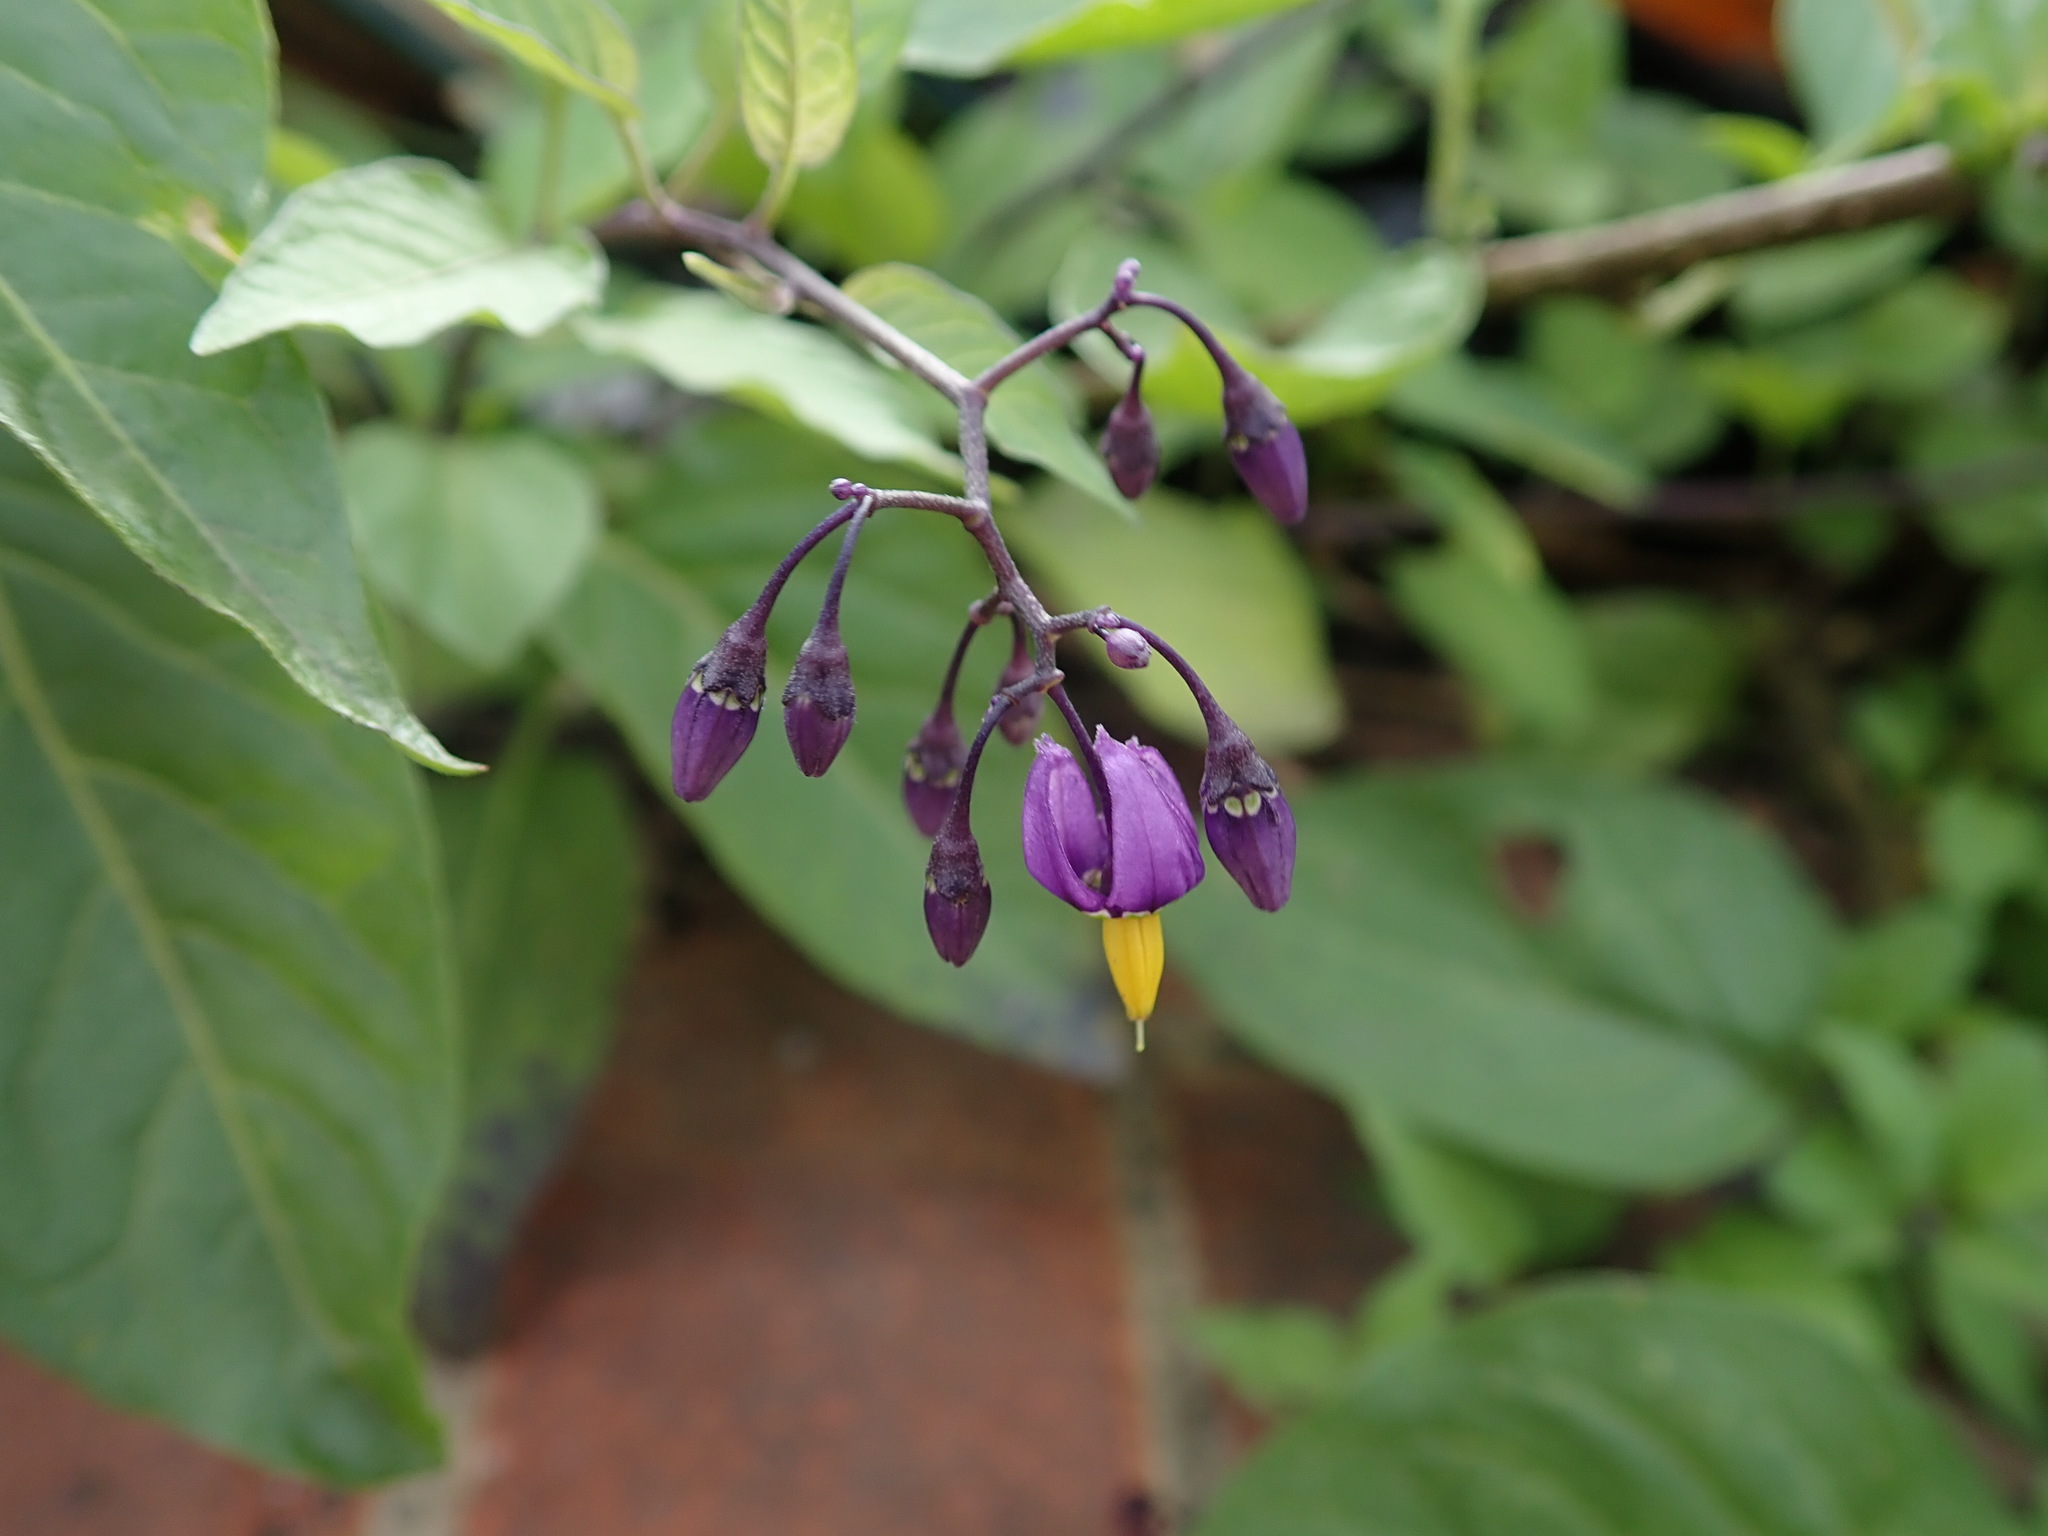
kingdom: Plantae
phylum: Tracheophyta
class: Magnoliopsida
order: Solanales
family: Solanaceae
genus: Solanum
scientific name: Solanum dulcamara
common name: Climbing nightshade
